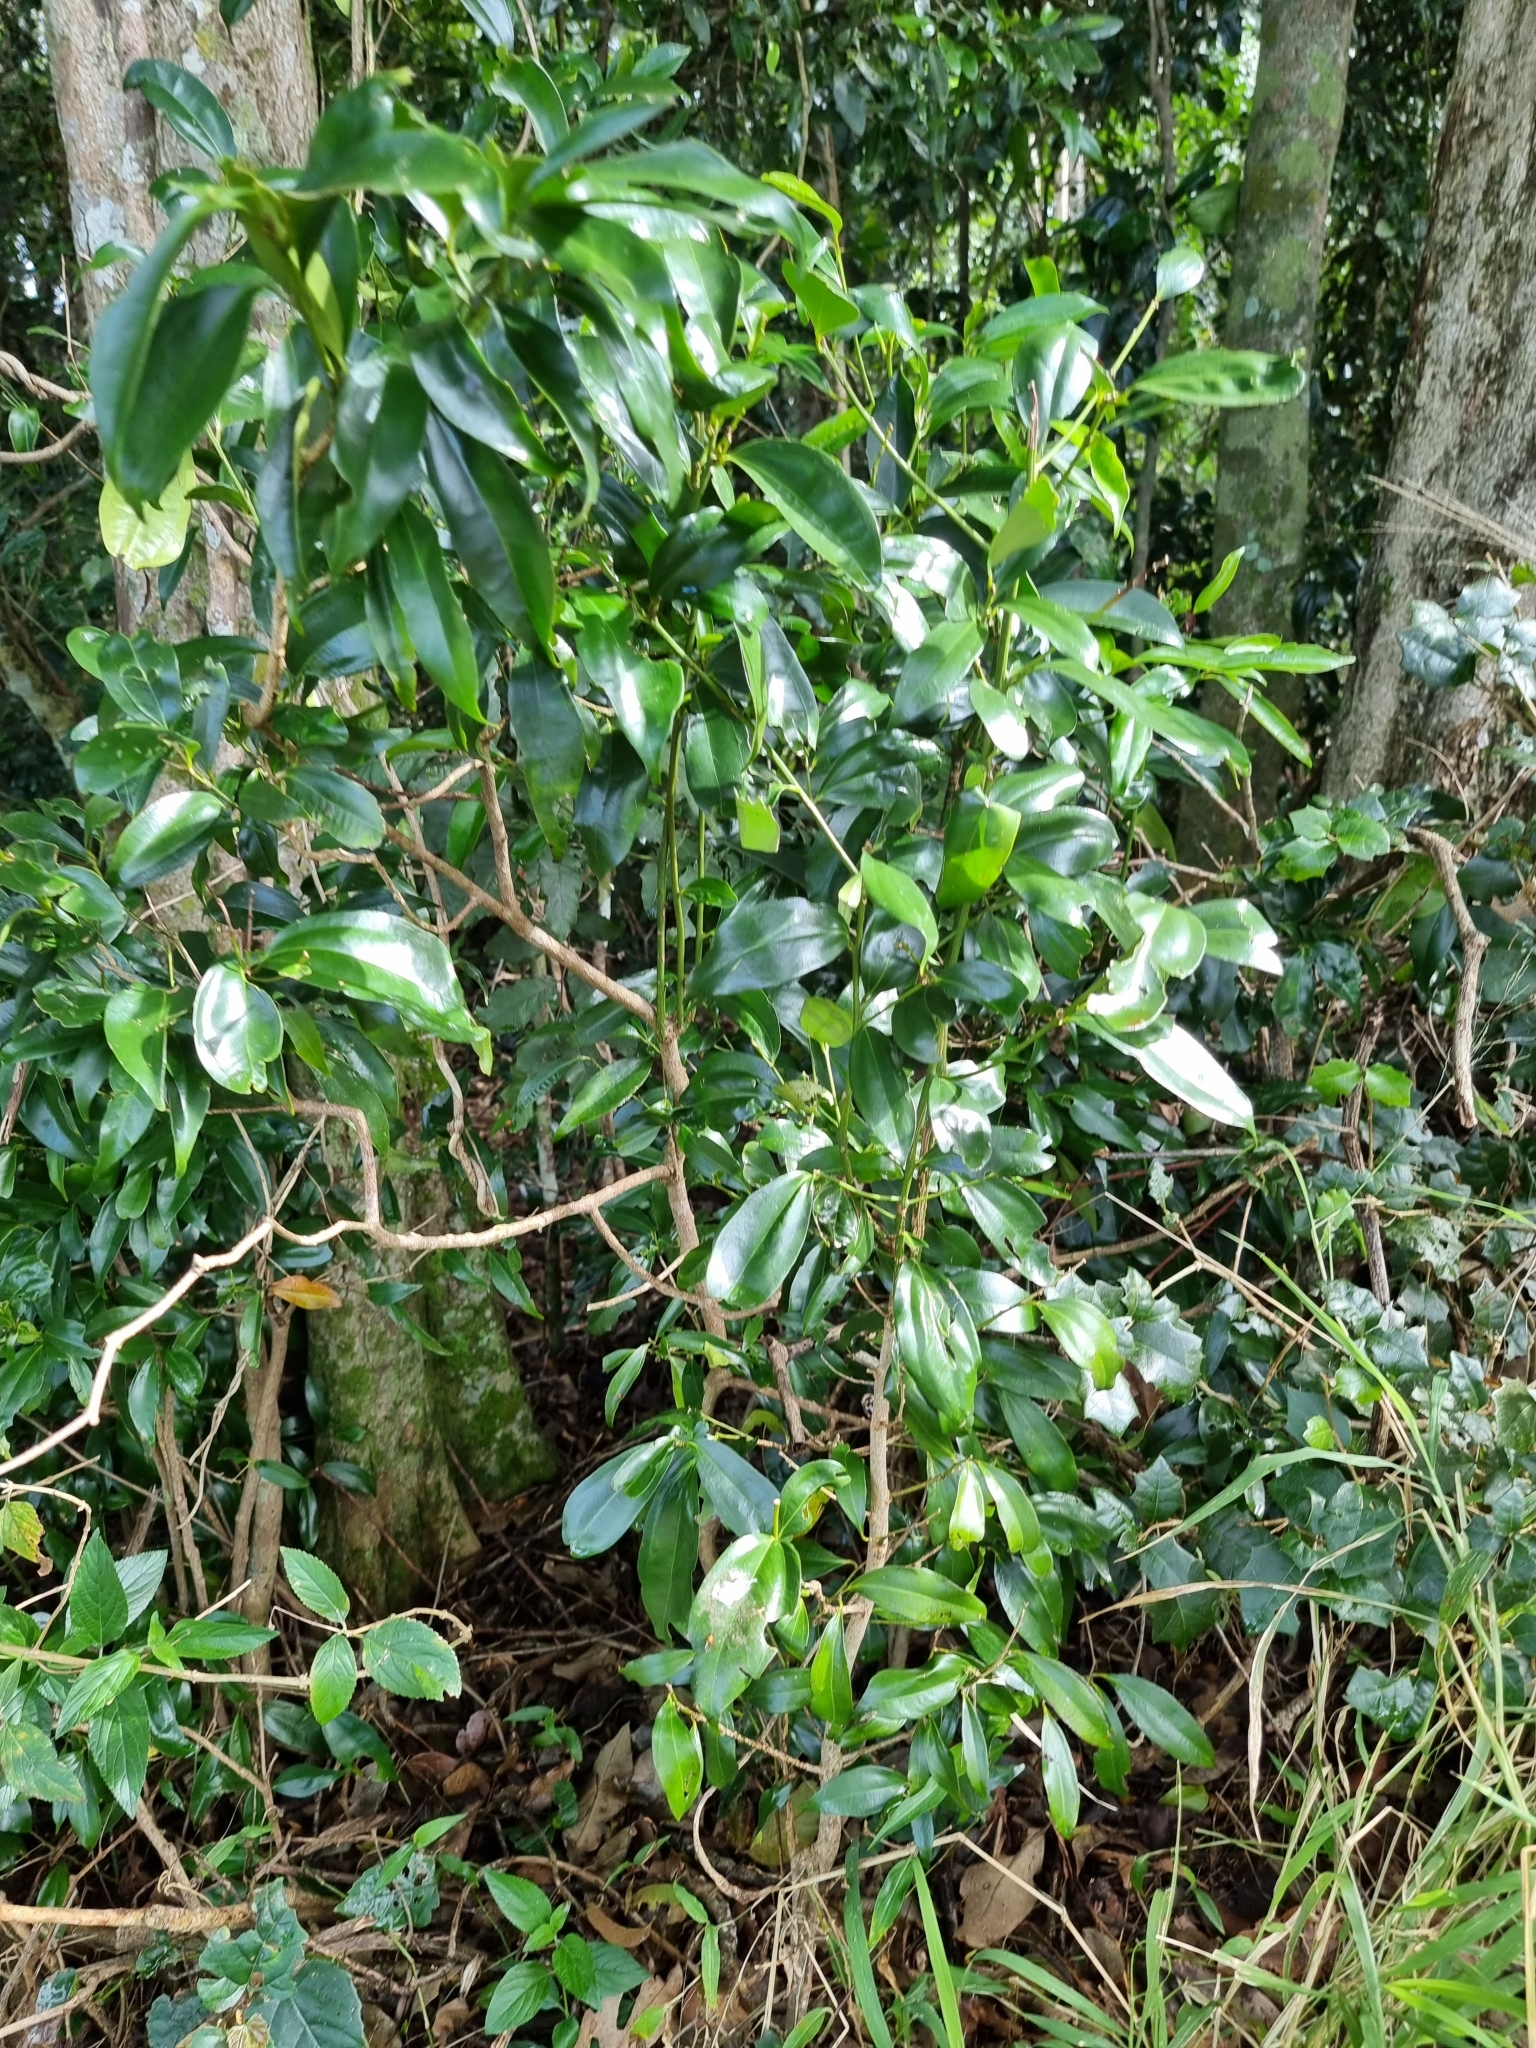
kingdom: Plantae
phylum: Tracheophyta
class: Magnoliopsida
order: Laurales
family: Lauraceae
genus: Cryptocarya
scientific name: Cryptocarya laevigata
